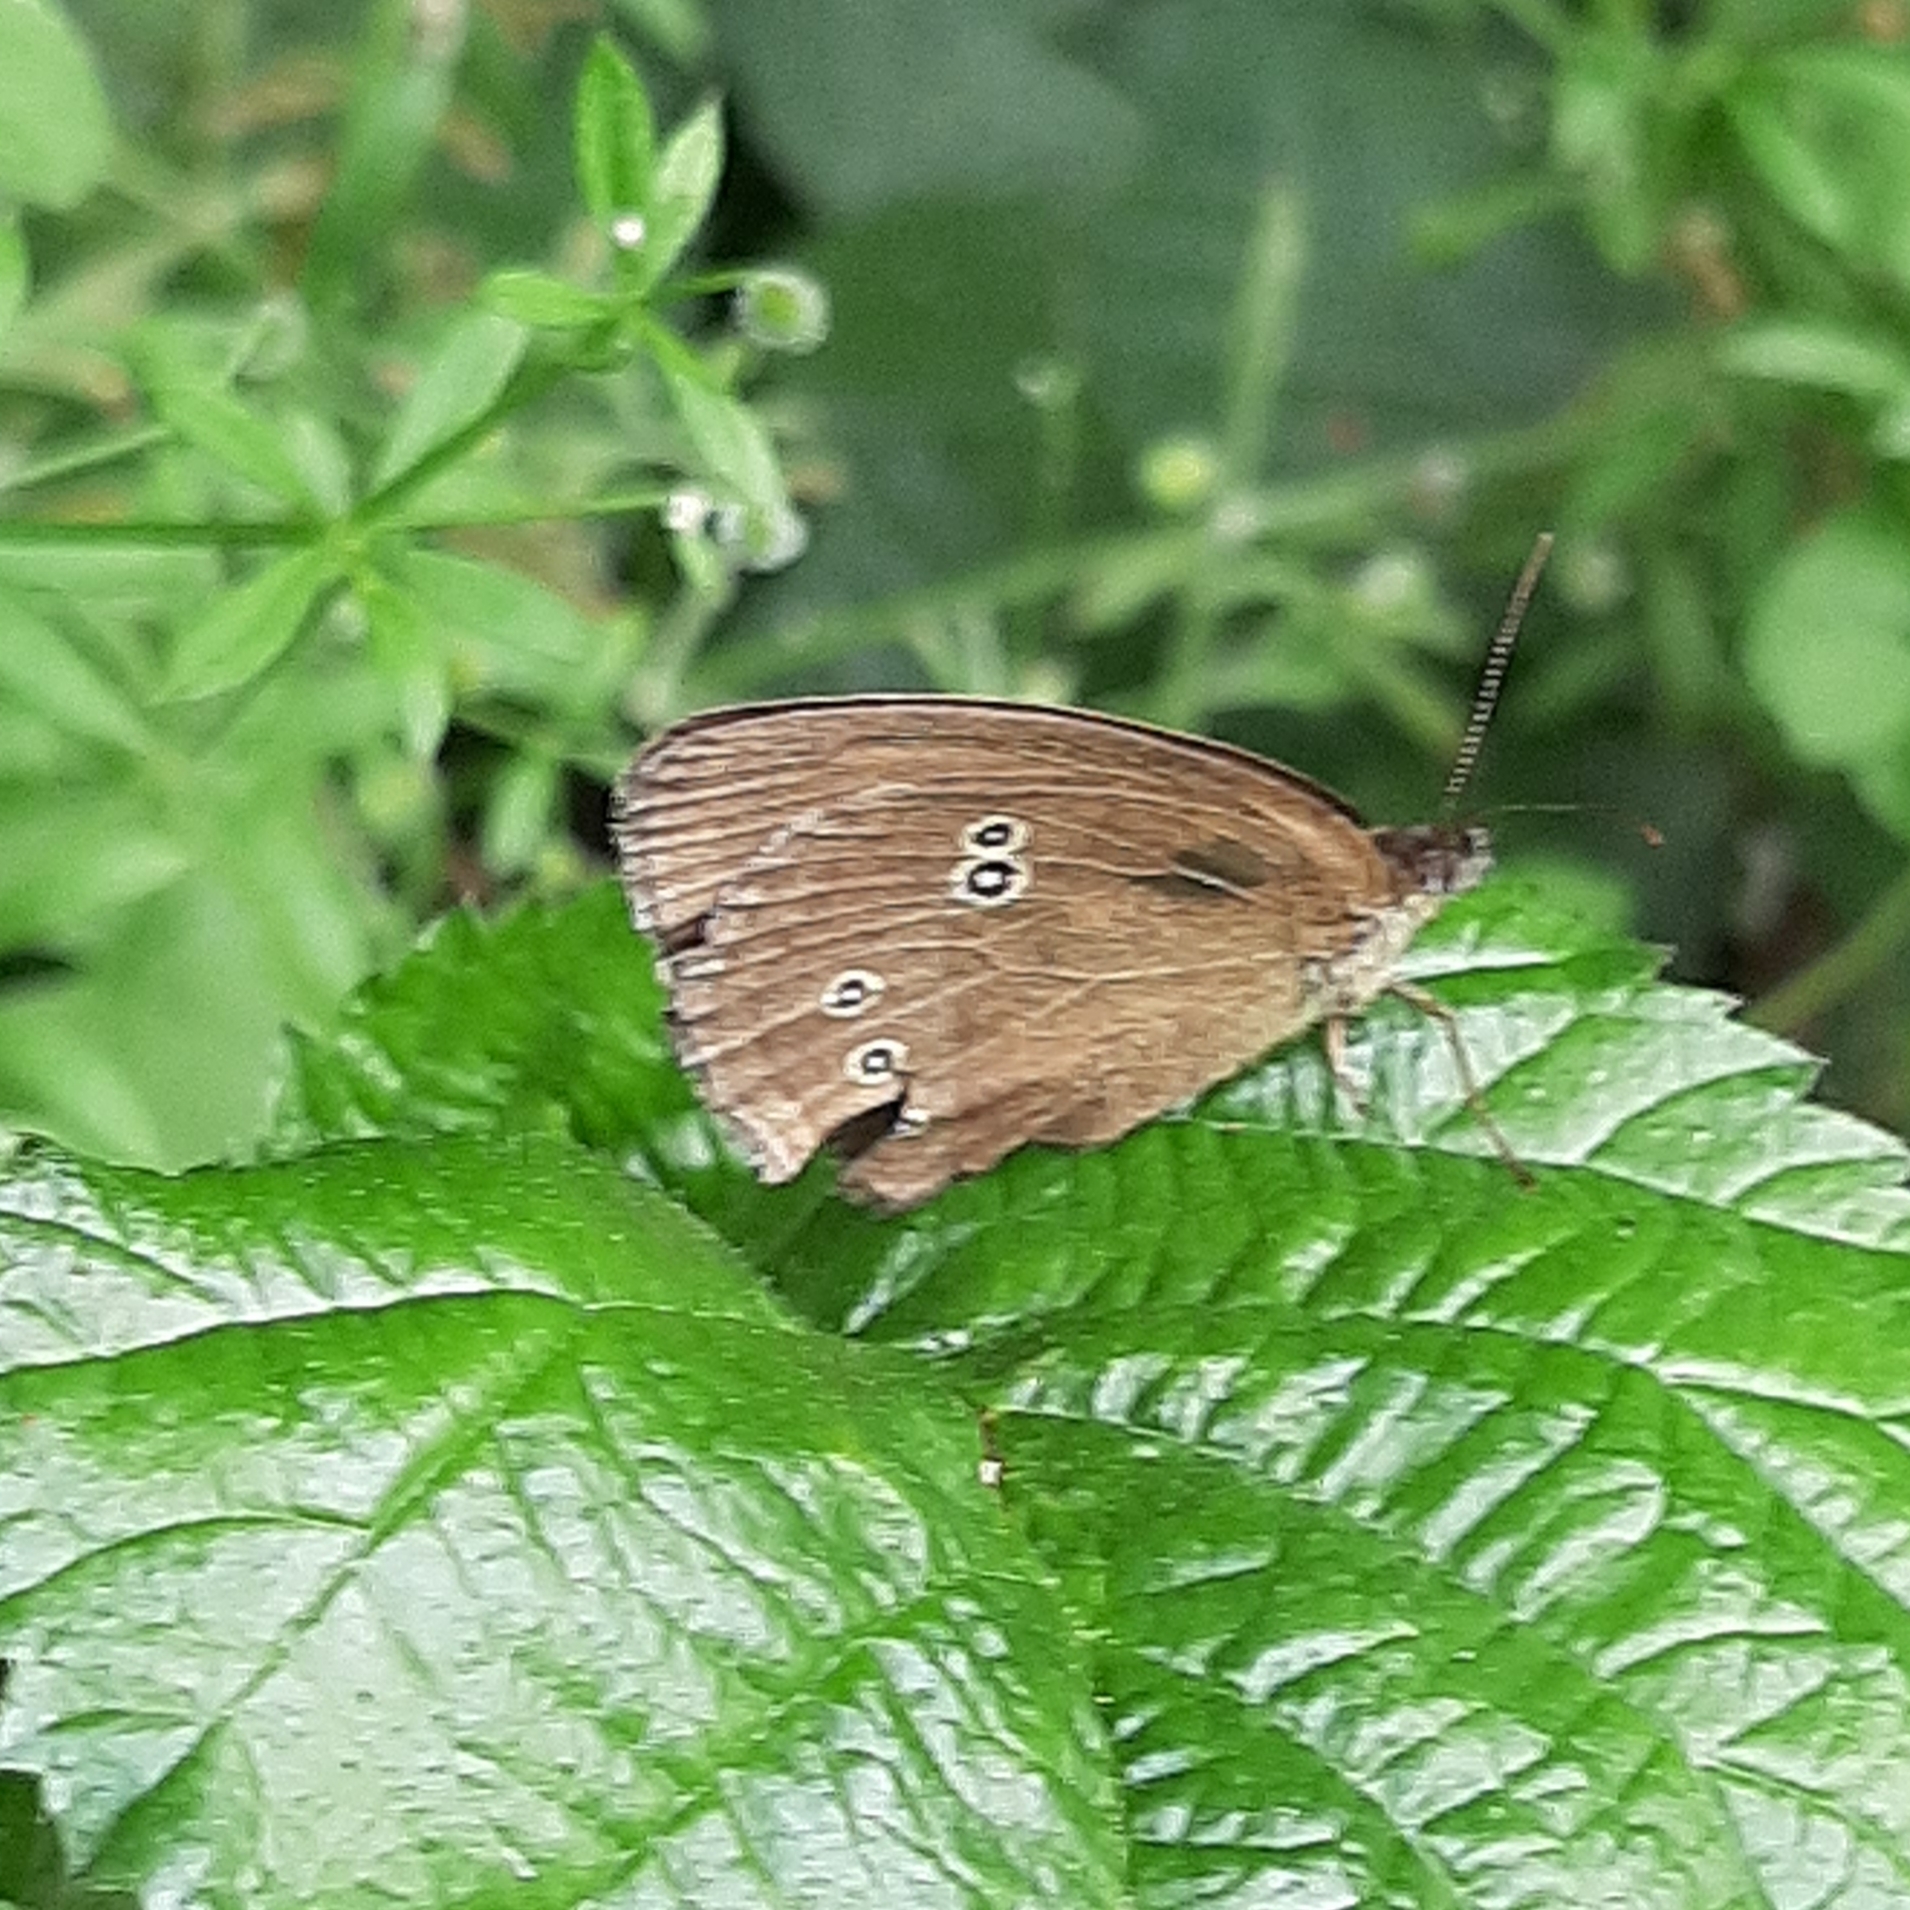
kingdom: Animalia
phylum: Arthropoda
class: Insecta
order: Lepidoptera
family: Nymphalidae
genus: Aphantopus
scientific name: Aphantopus hyperantus
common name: Ringlet
